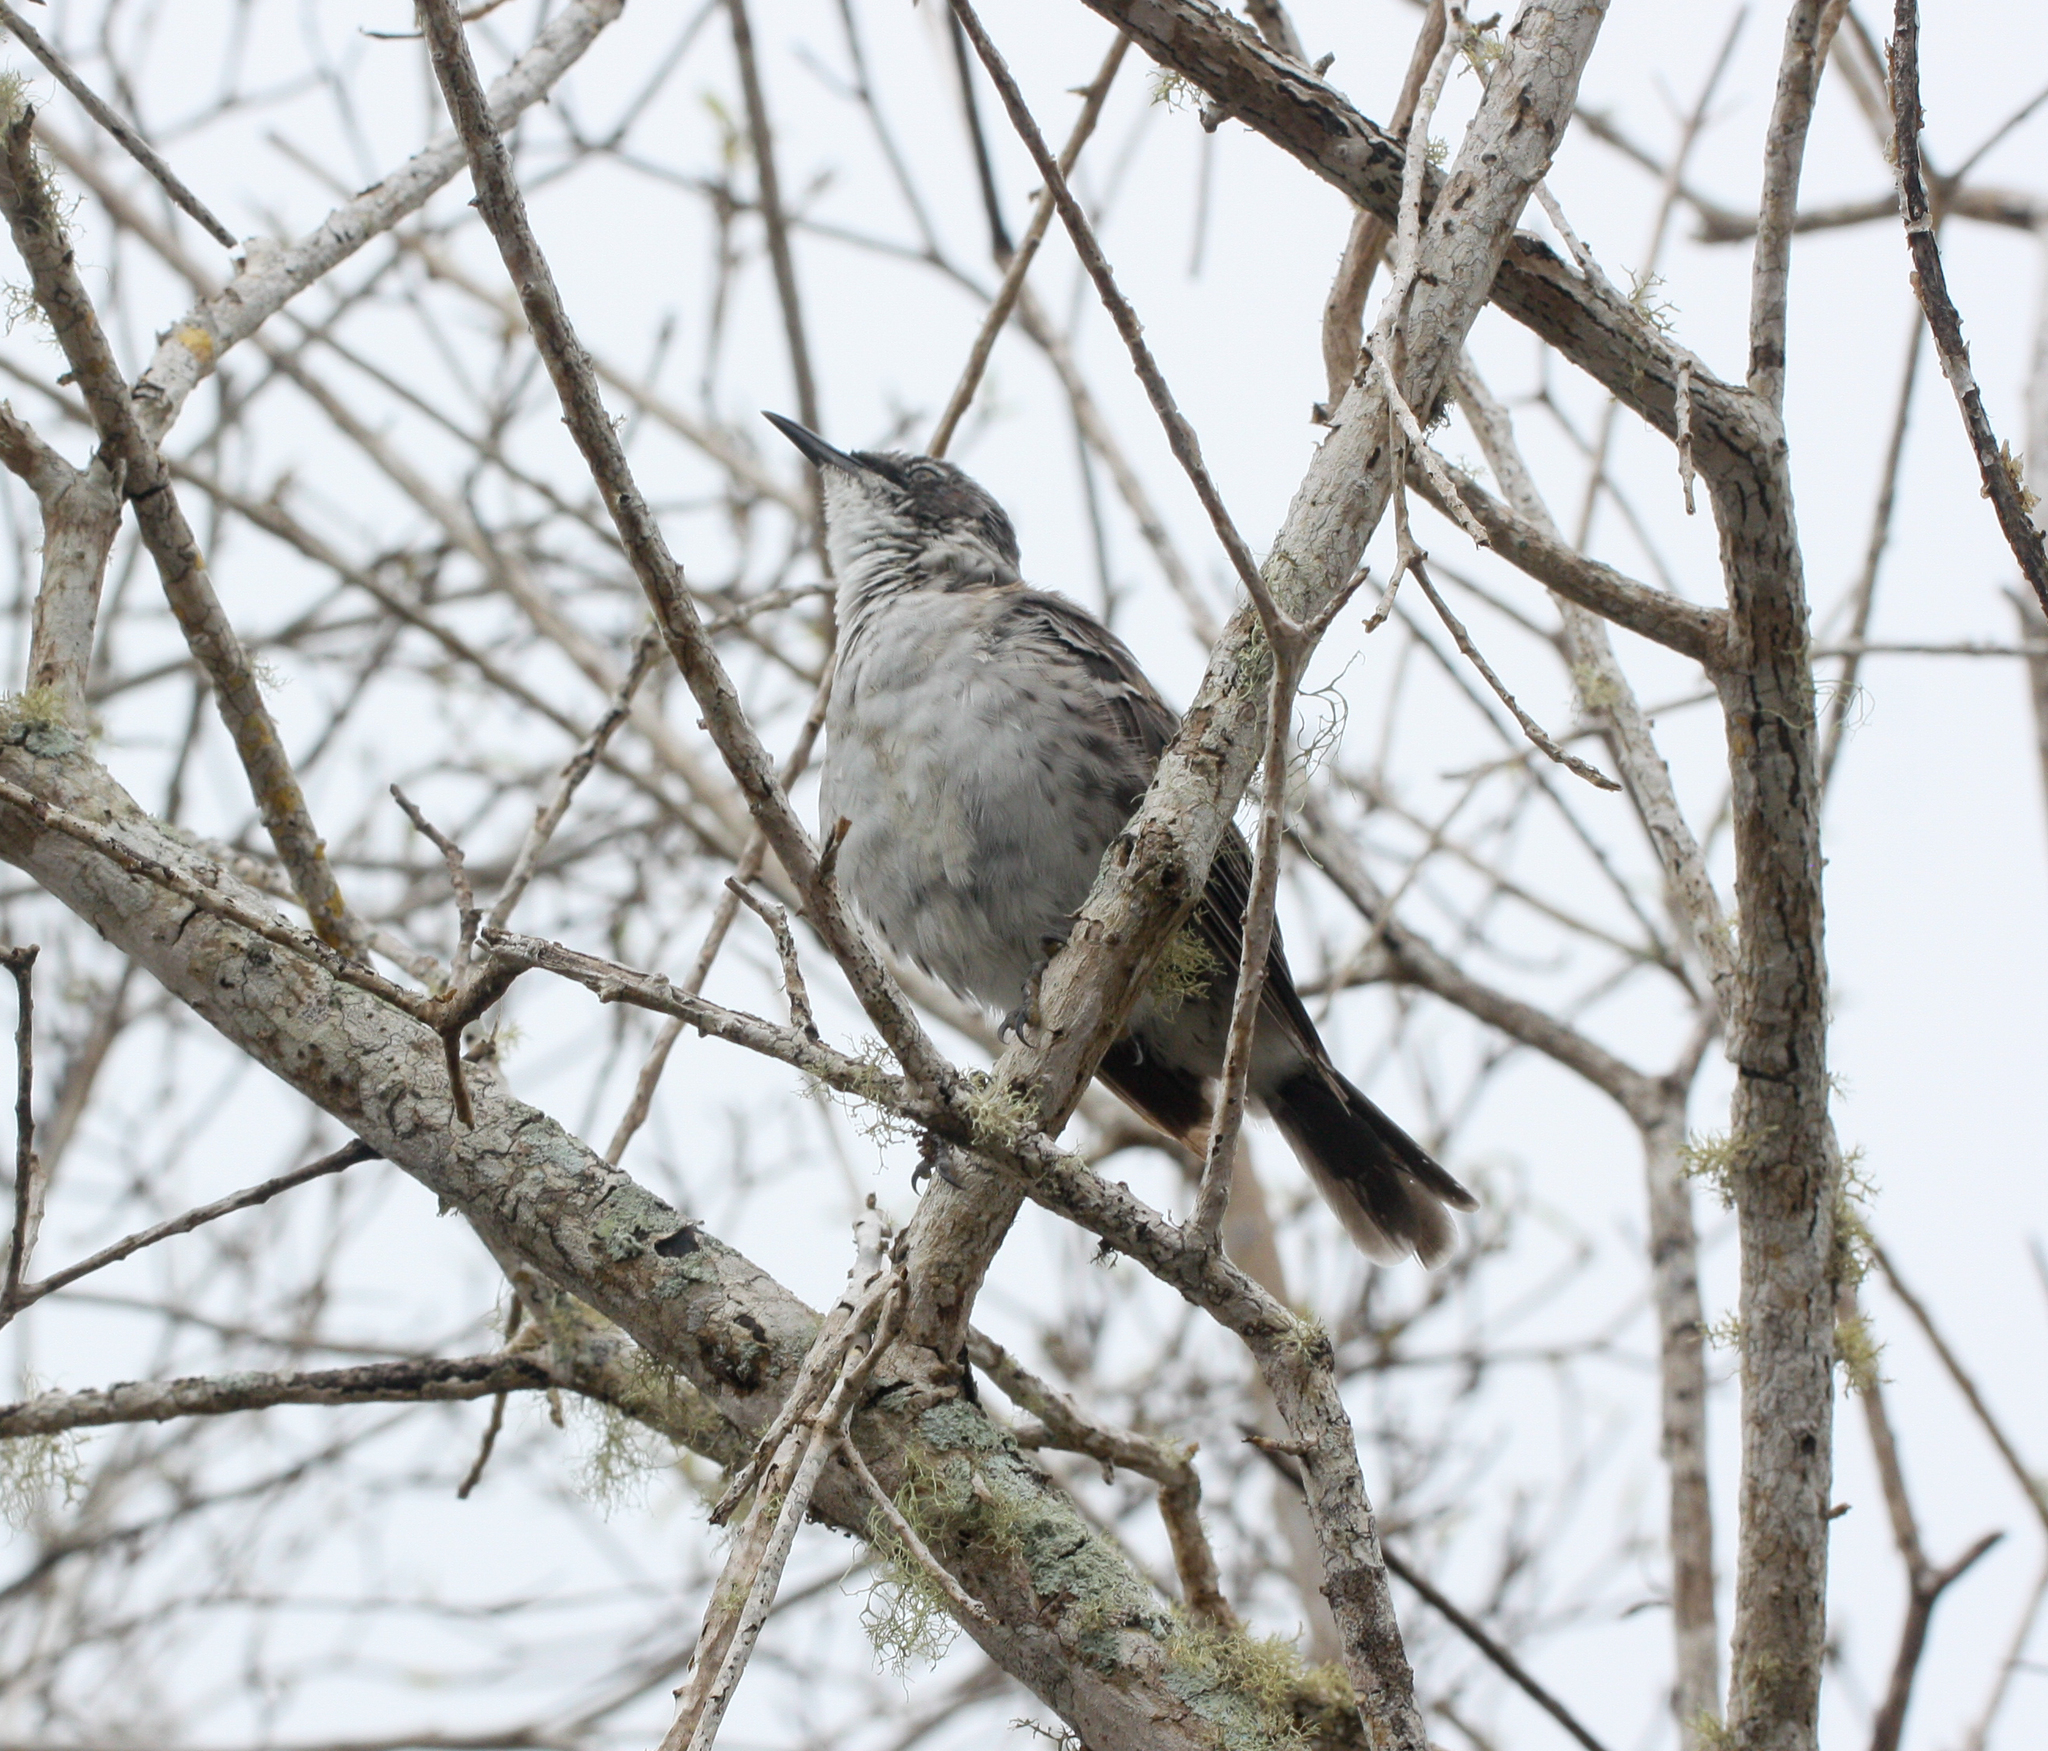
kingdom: Animalia
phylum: Chordata
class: Aves
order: Passeriformes
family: Mimidae
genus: Mimus
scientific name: Mimus parvulus
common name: Galapagos mockingbird
